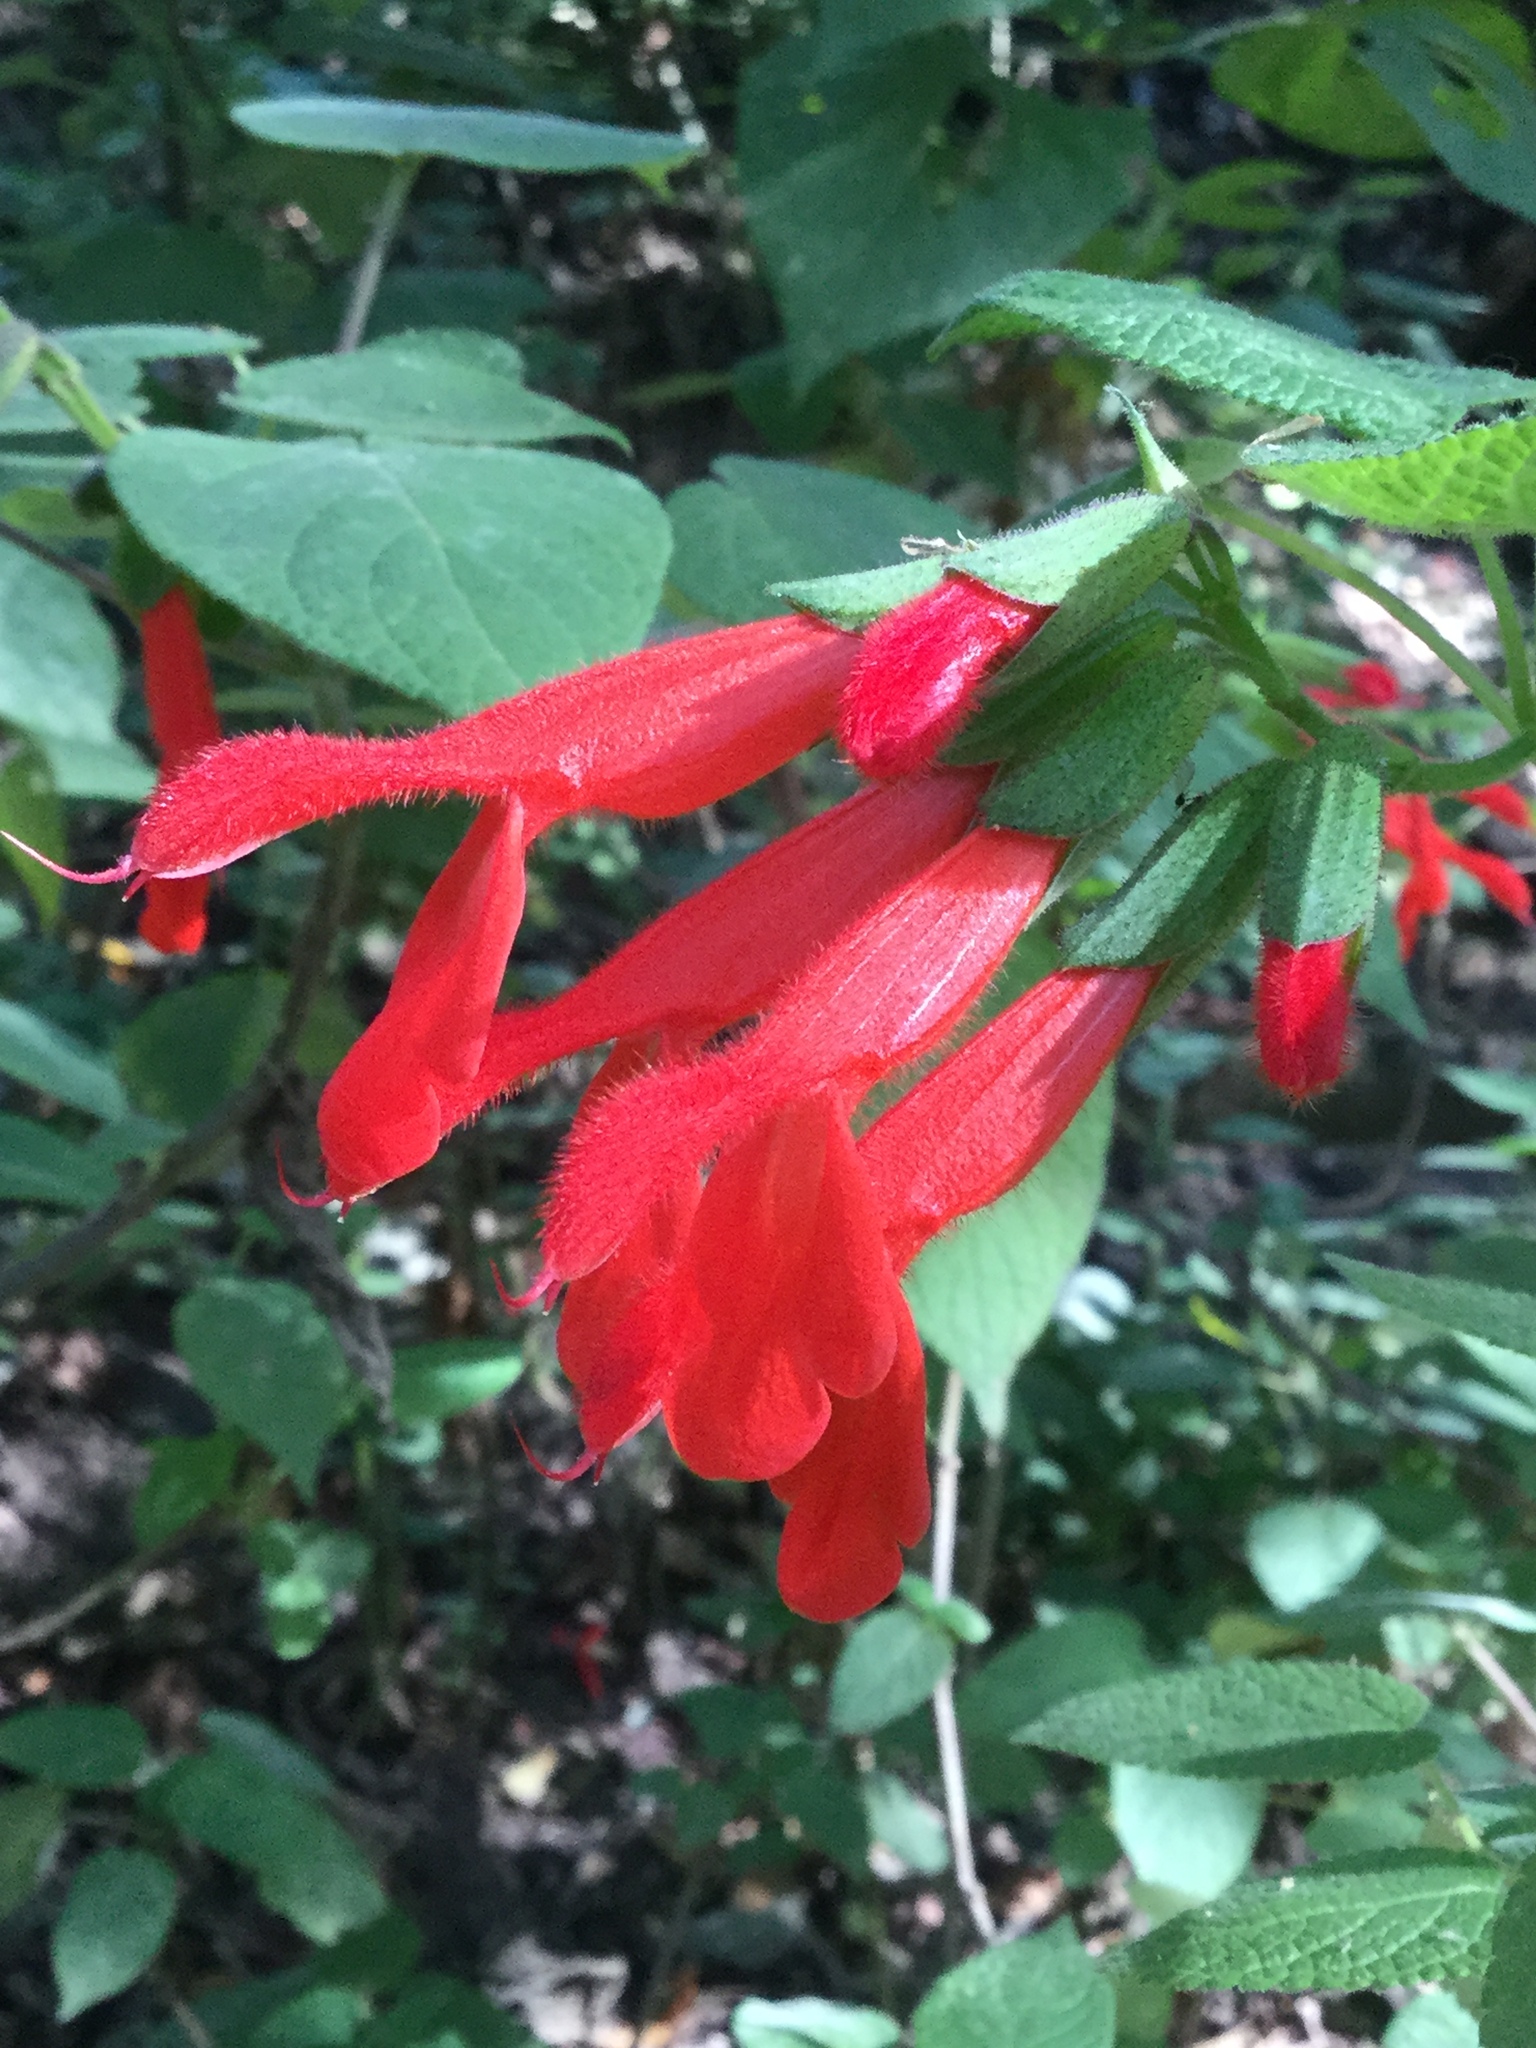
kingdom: Plantae
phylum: Tracheophyta
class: Magnoliopsida
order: Lamiales
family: Lamiaceae
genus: Salvia
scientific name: Salvia gesneriiflora
